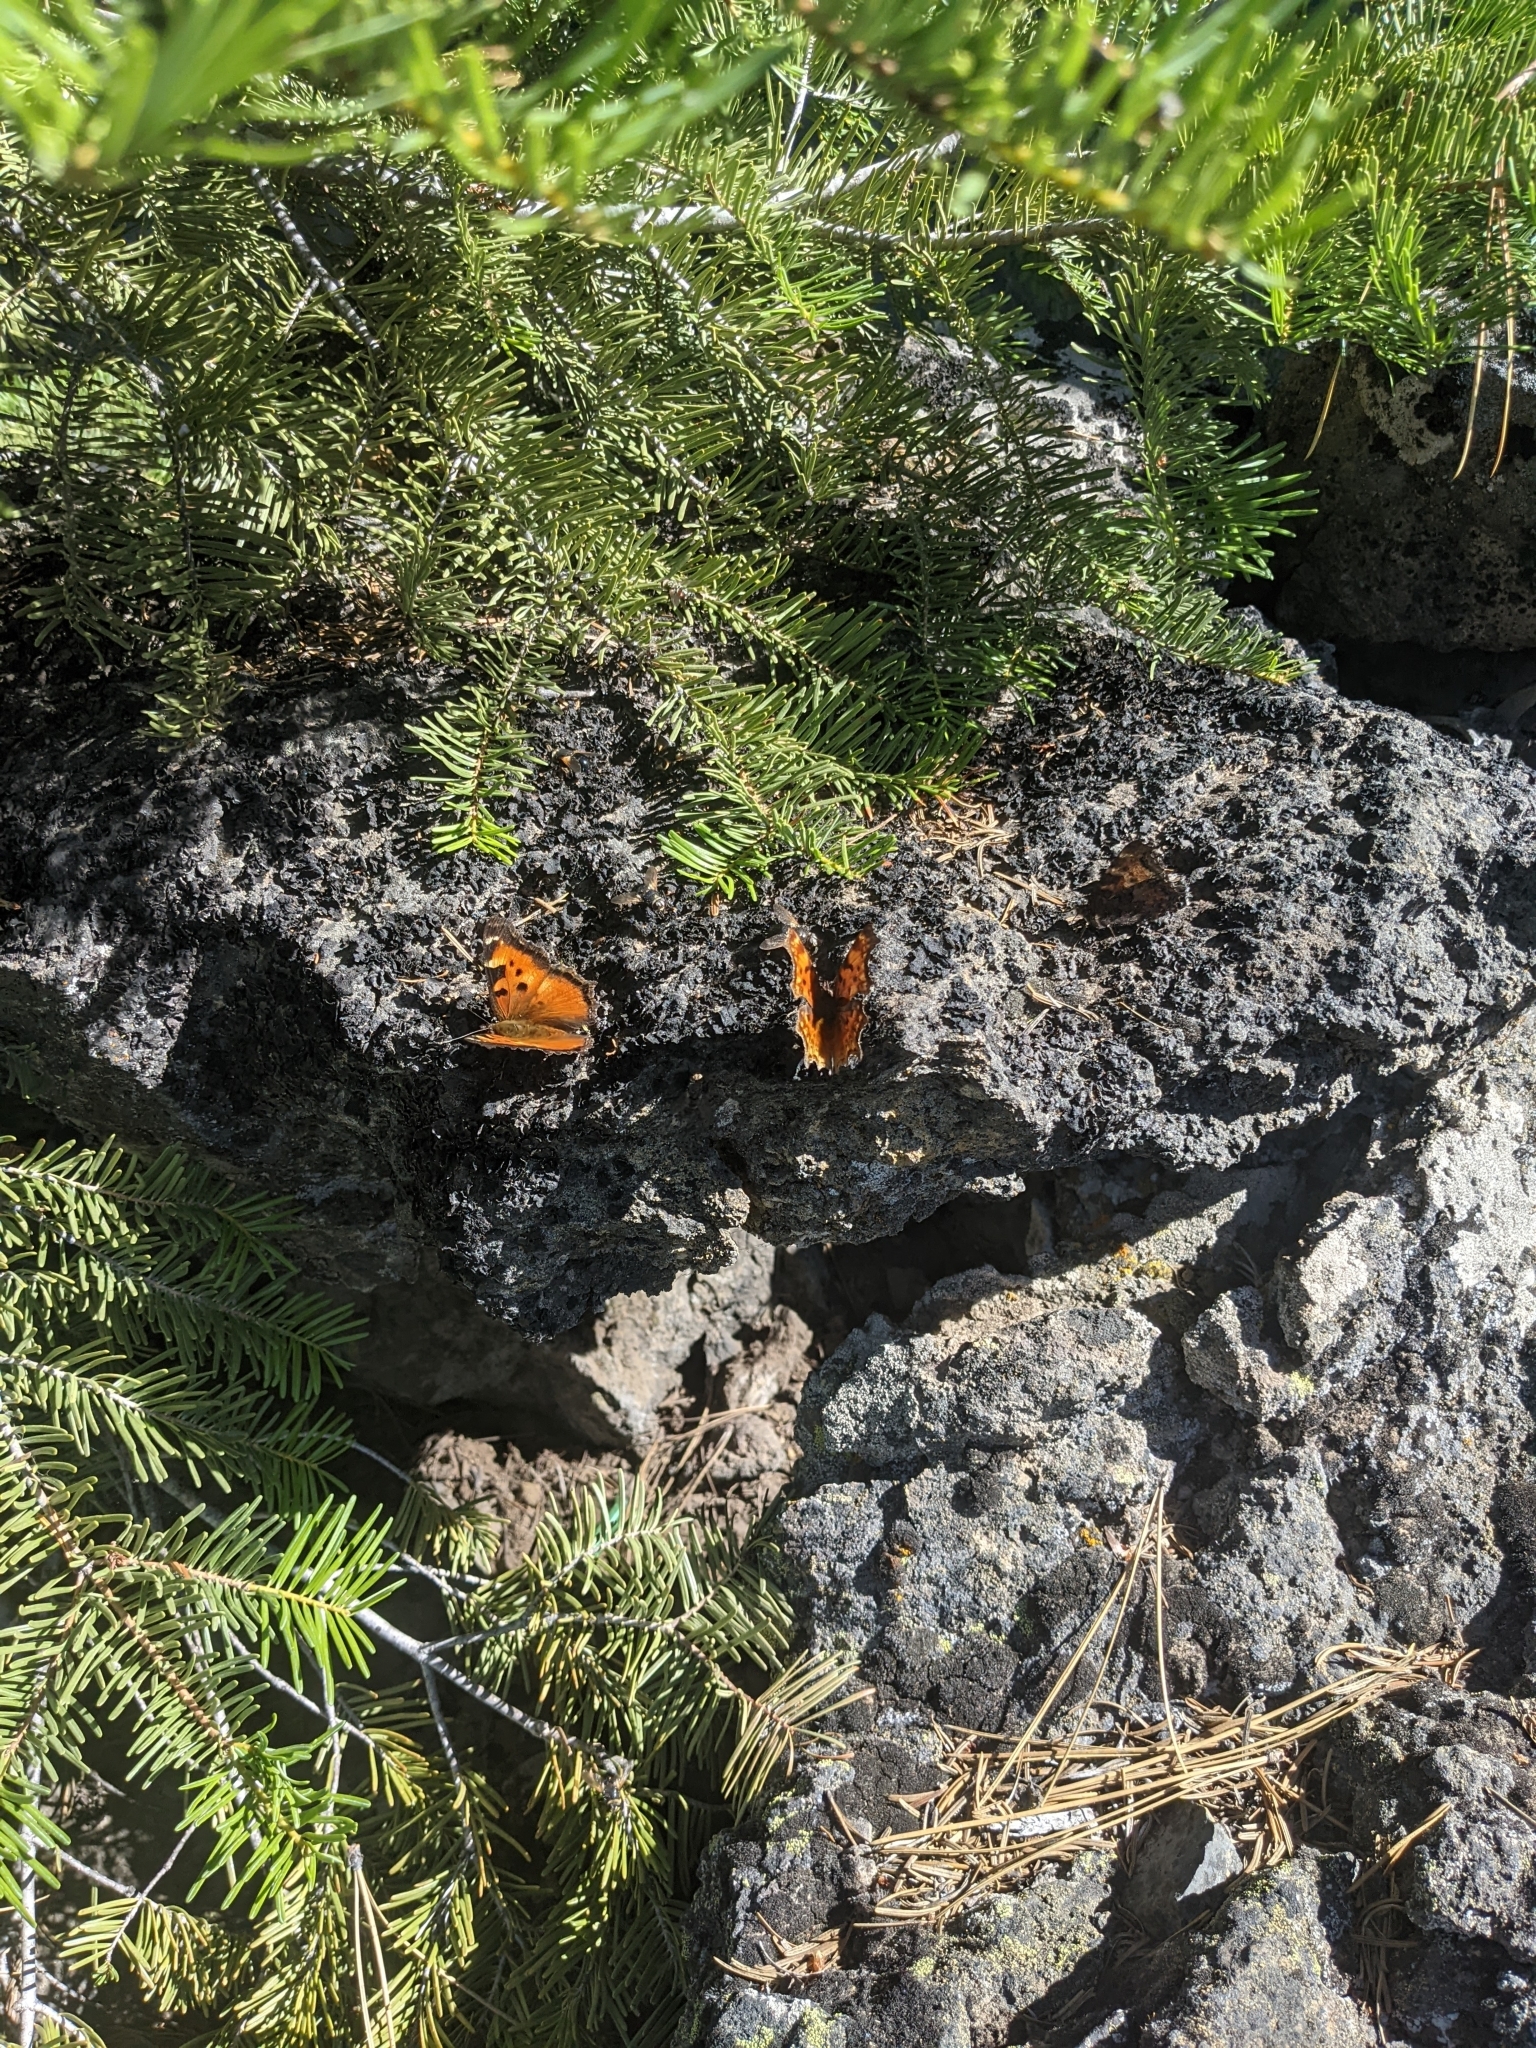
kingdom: Animalia
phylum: Arthropoda
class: Insecta
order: Lepidoptera
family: Nymphalidae
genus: Nymphalis
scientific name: Nymphalis californica
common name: California tortoiseshell
